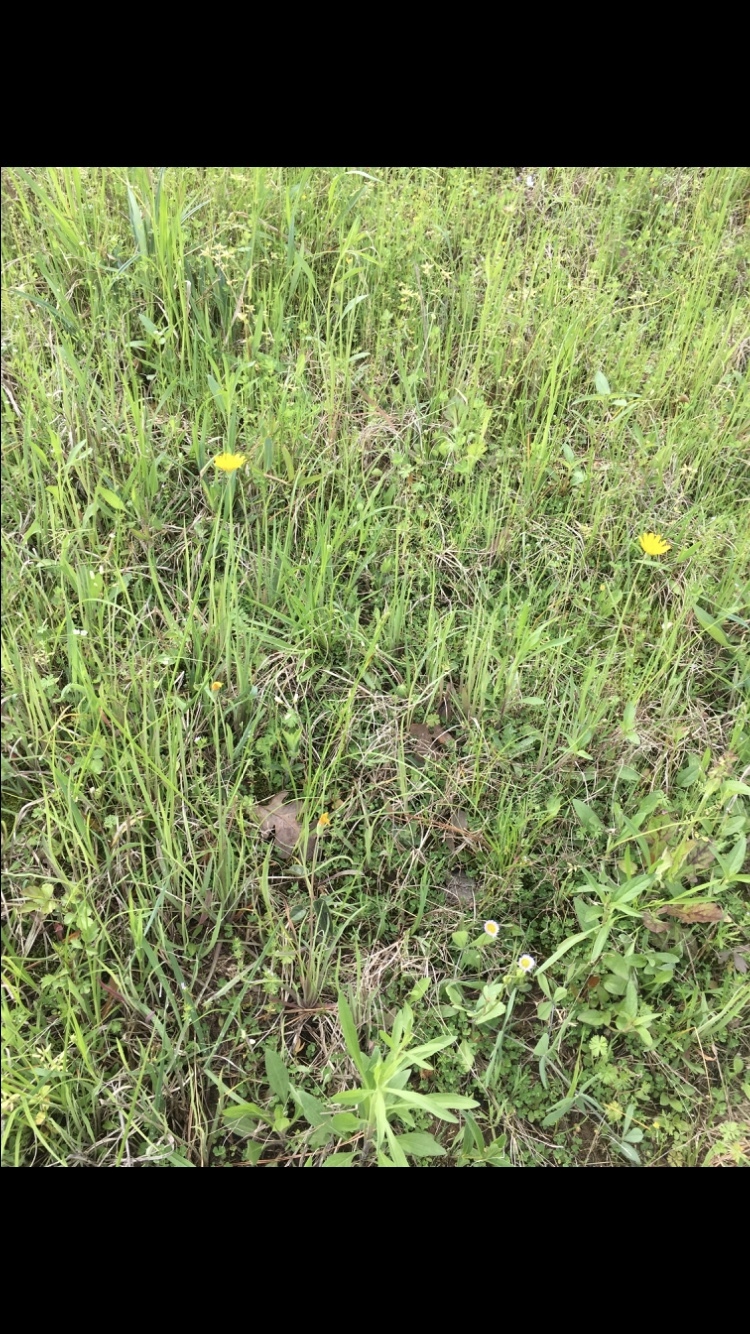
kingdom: Plantae
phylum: Tracheophyta
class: Magnoliopsida
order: Asterales
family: Asteraceae
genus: Krigia
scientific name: Krigia dandelion
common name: Colonial dwarf-dandelion
